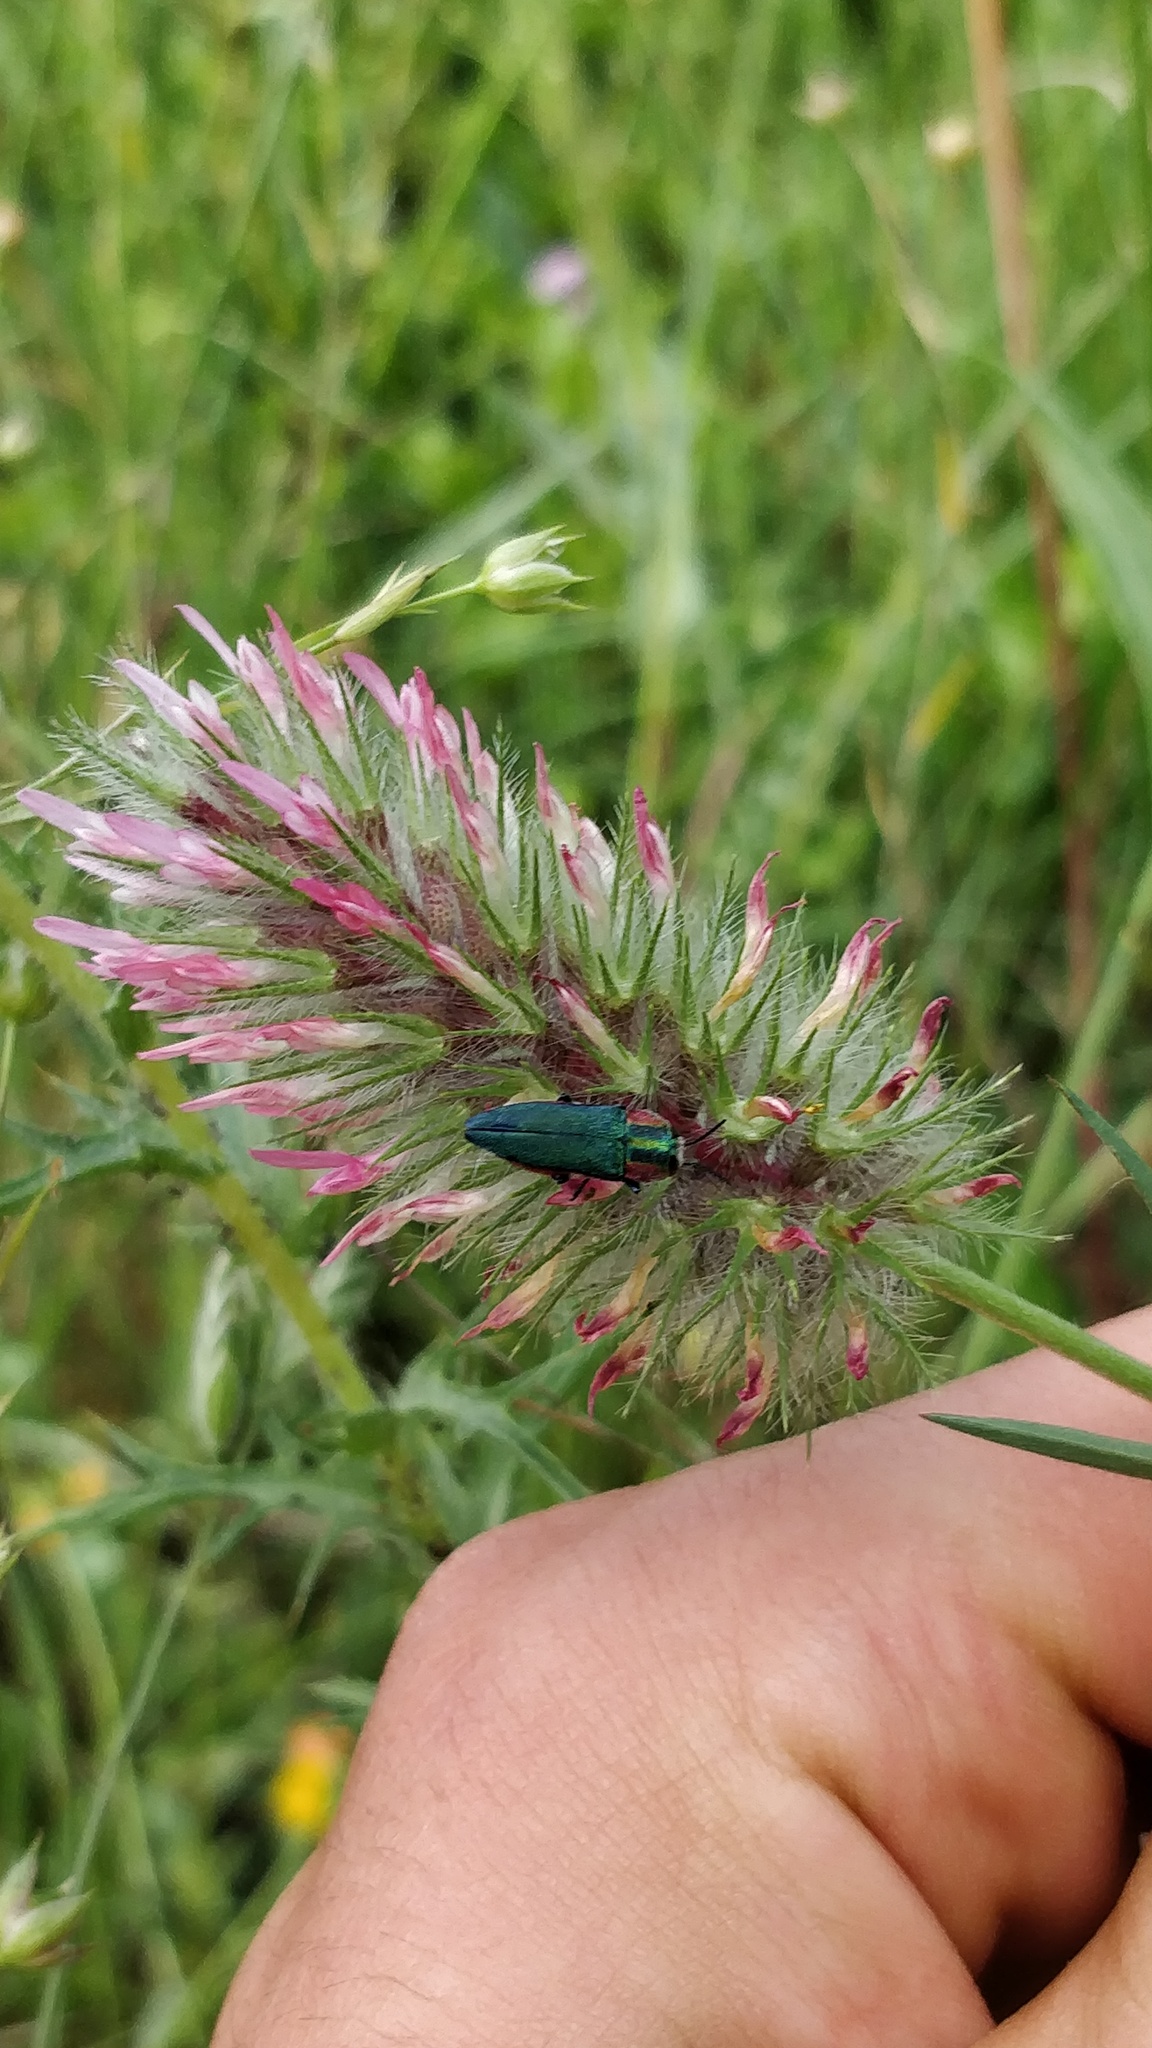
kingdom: Animalia
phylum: Arthropoda
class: Insecta
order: Coleoptera
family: Buprestidae
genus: Anthaxia
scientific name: Anthaxia hungarica
